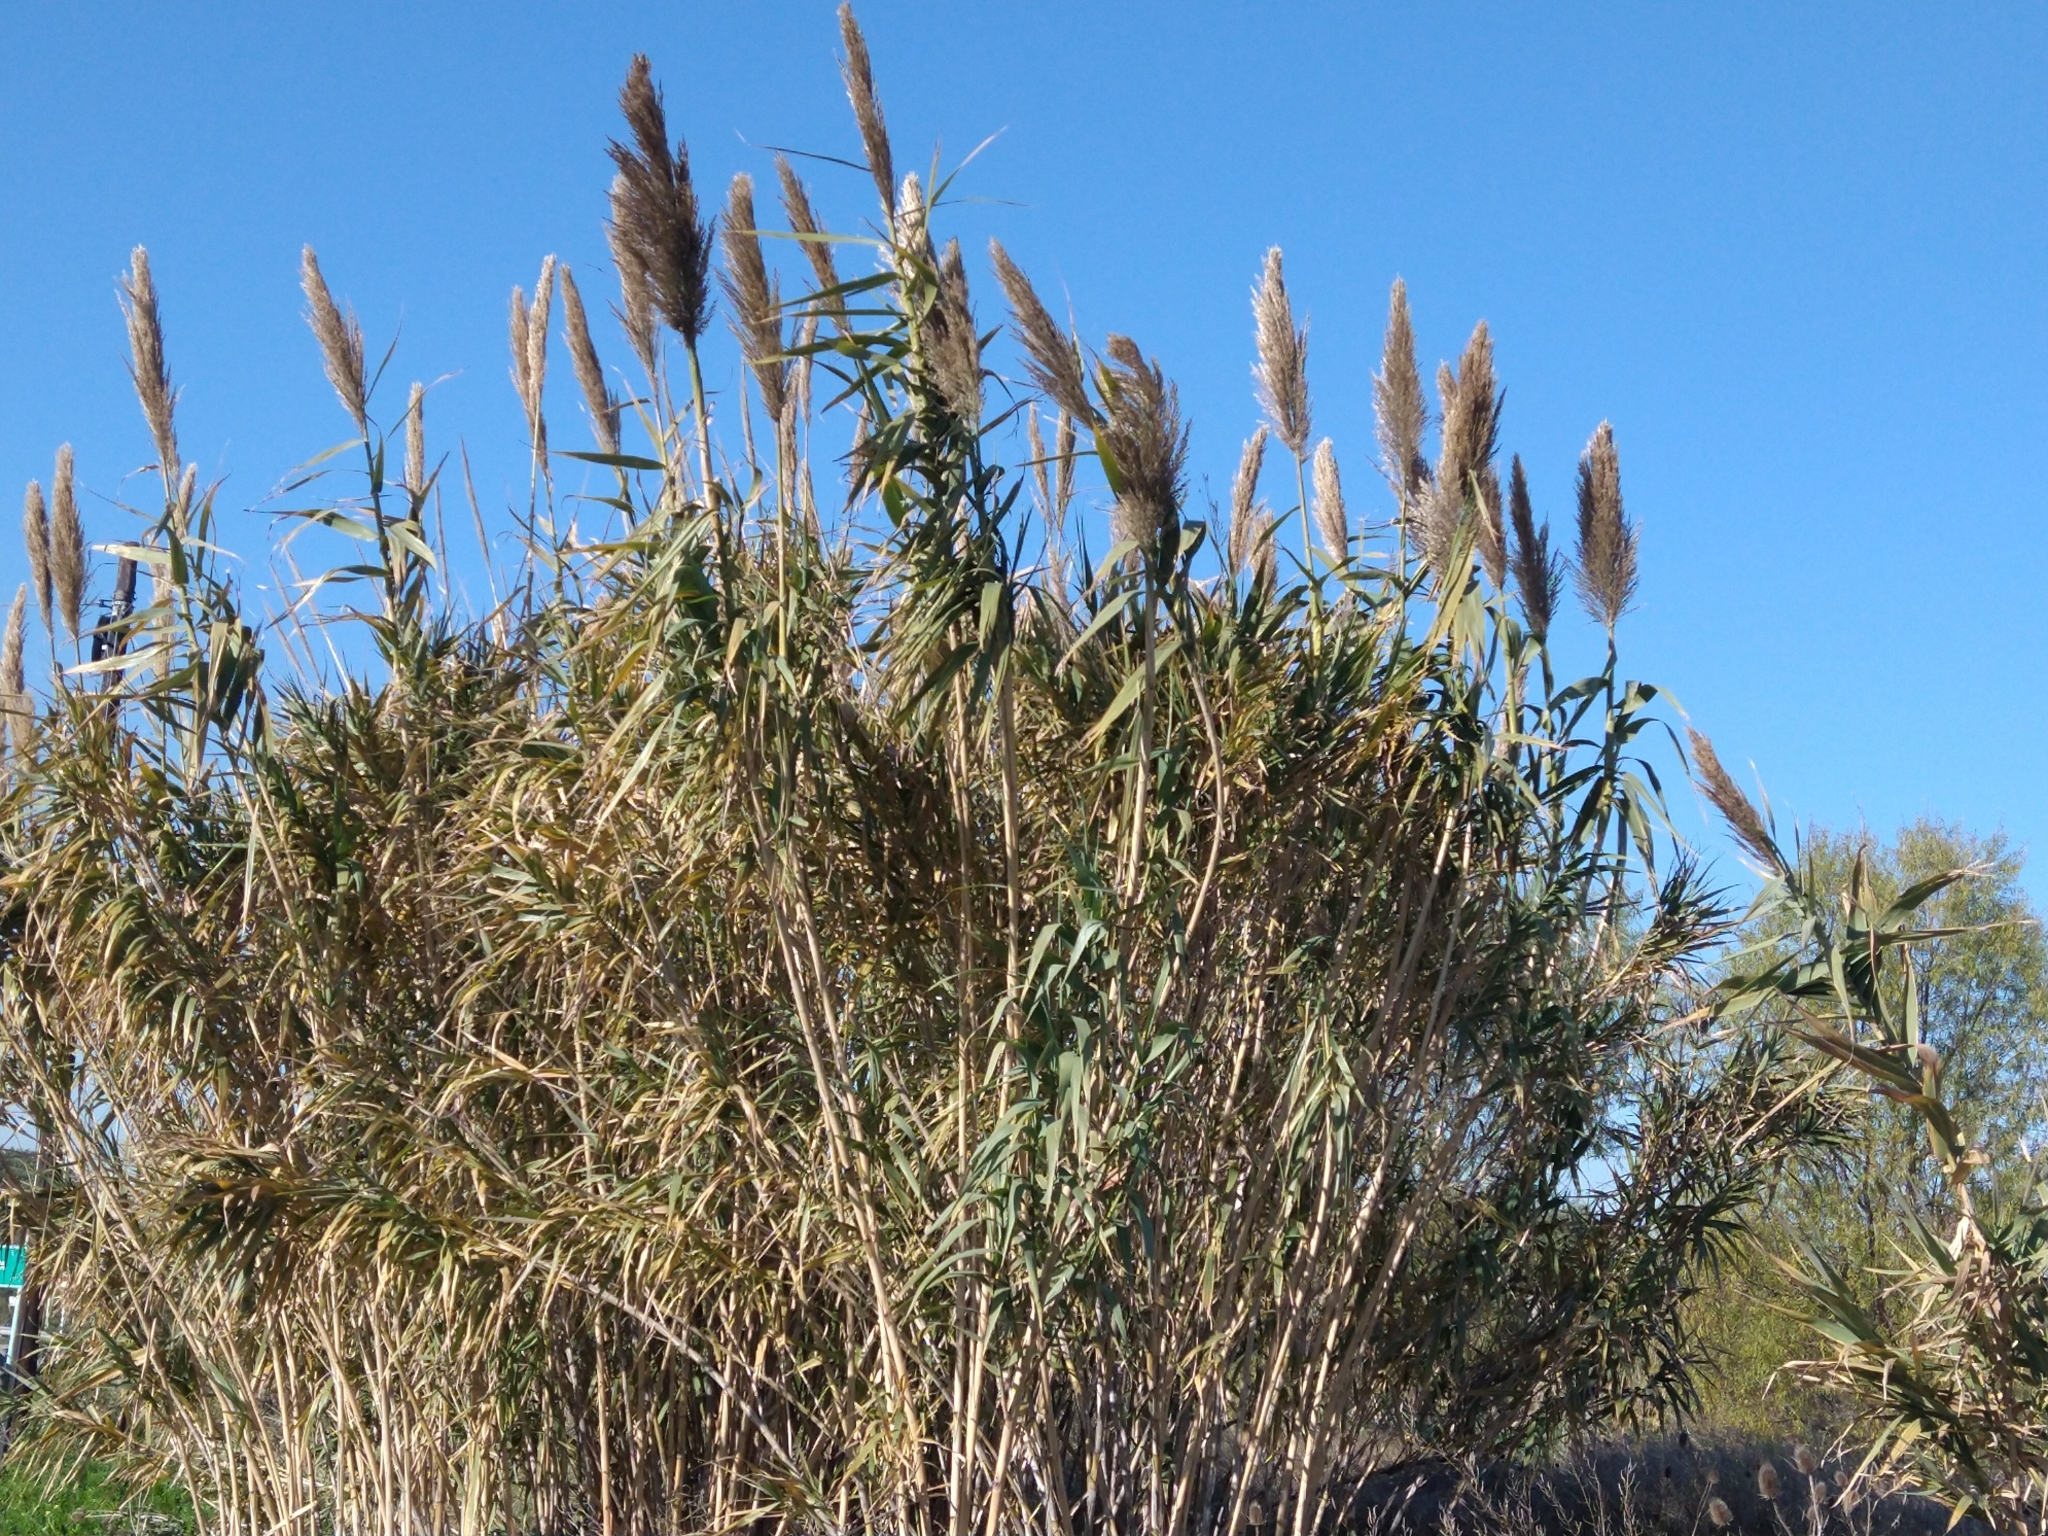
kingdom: Plantae
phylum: Tracheophyta
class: Liliopsida
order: Poales
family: Poaceae
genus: Arundo
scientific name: Arundo donax
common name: Giant reed
